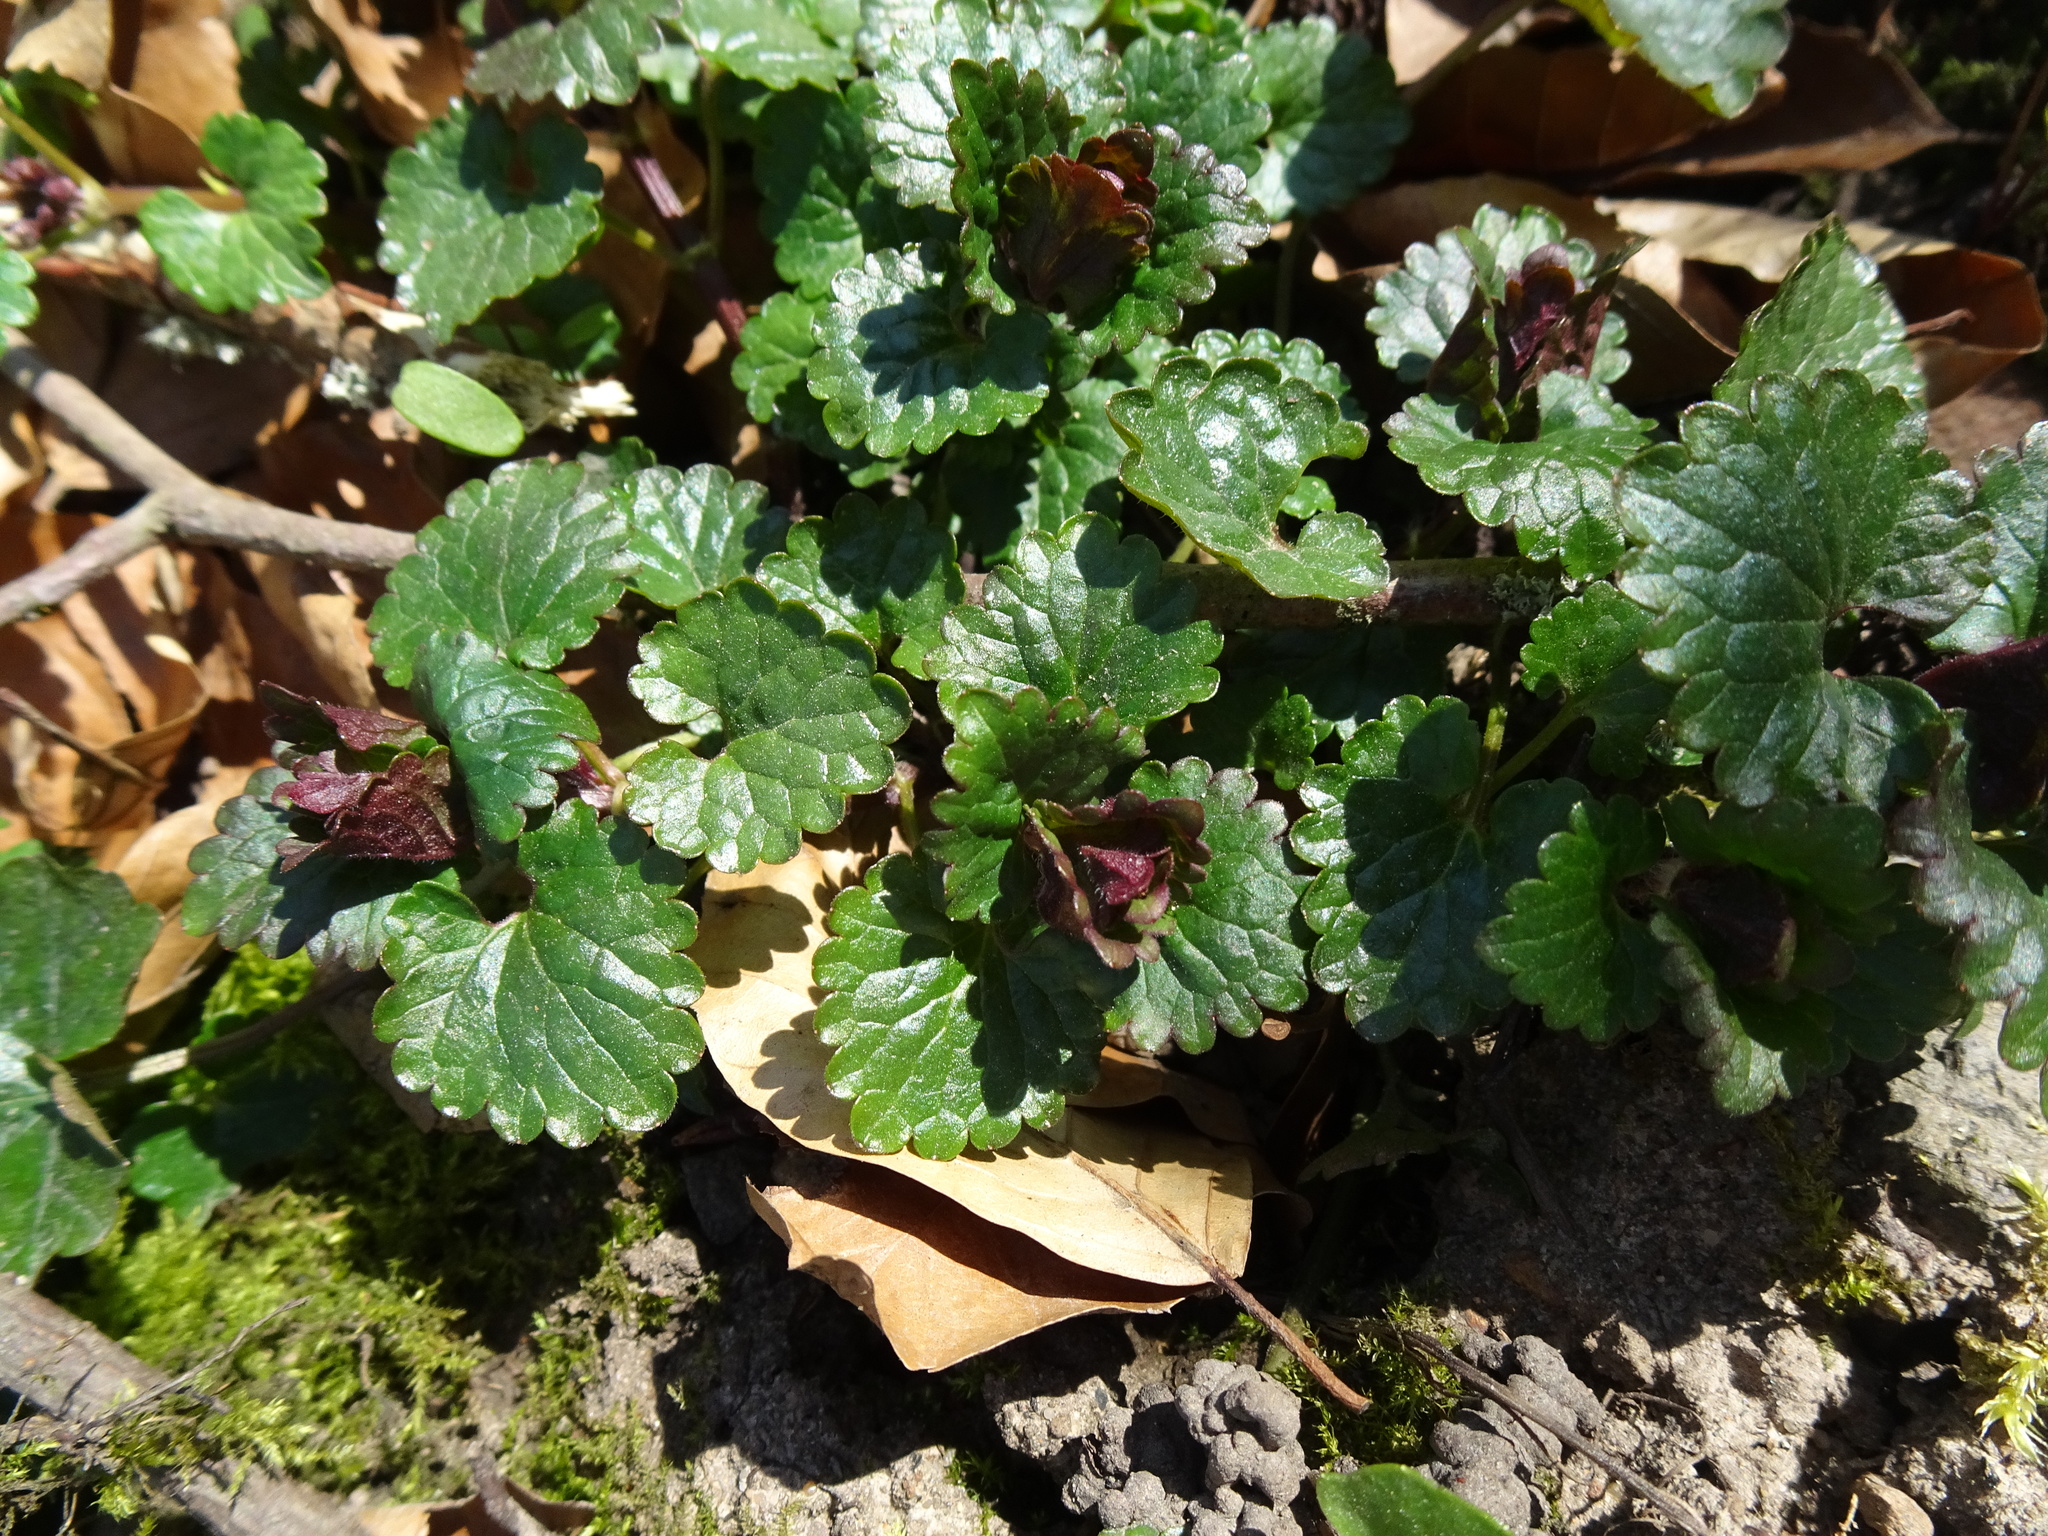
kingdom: Plantae
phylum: Tracheophyta
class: Magnoliopsida
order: Lamiales
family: Lamiaceae
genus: Glechoma
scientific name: Glechoma hederacea
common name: Ground ivy
